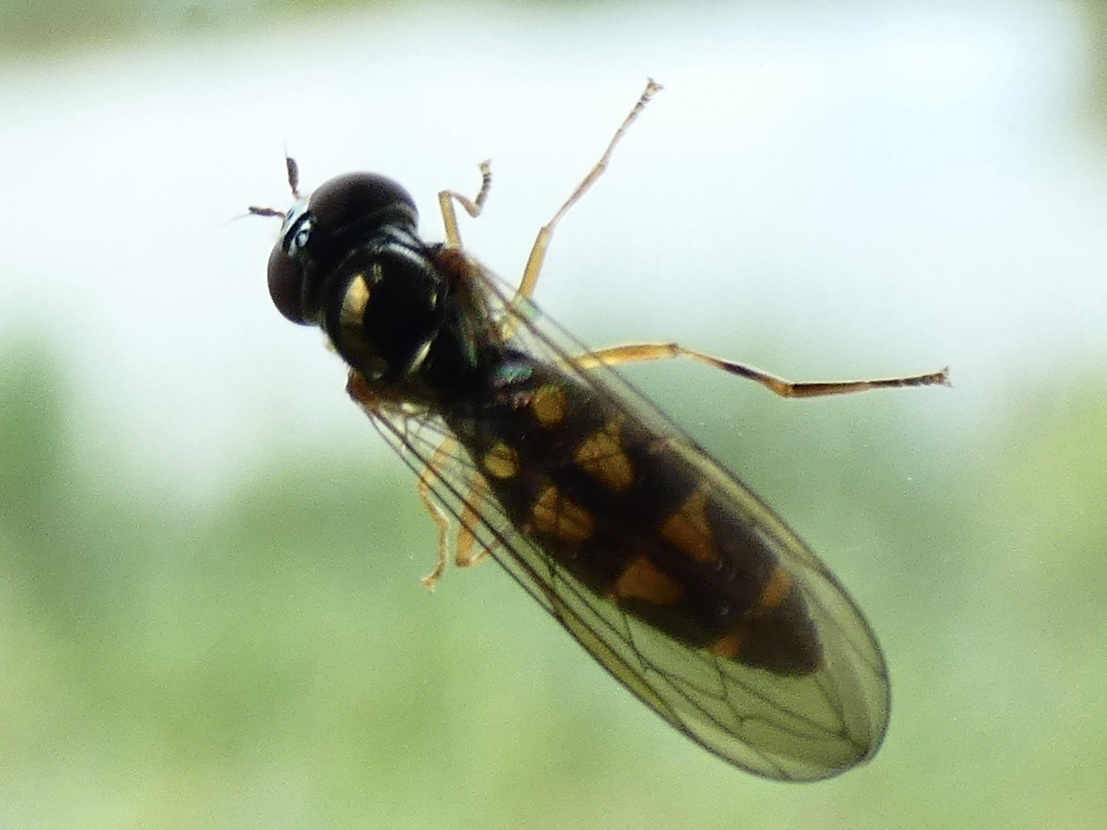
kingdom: Animalia
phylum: Arthropoda
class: Insecta
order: Diptera
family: Syrphidae
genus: Melanostoma
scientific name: Melanostoma scalare
